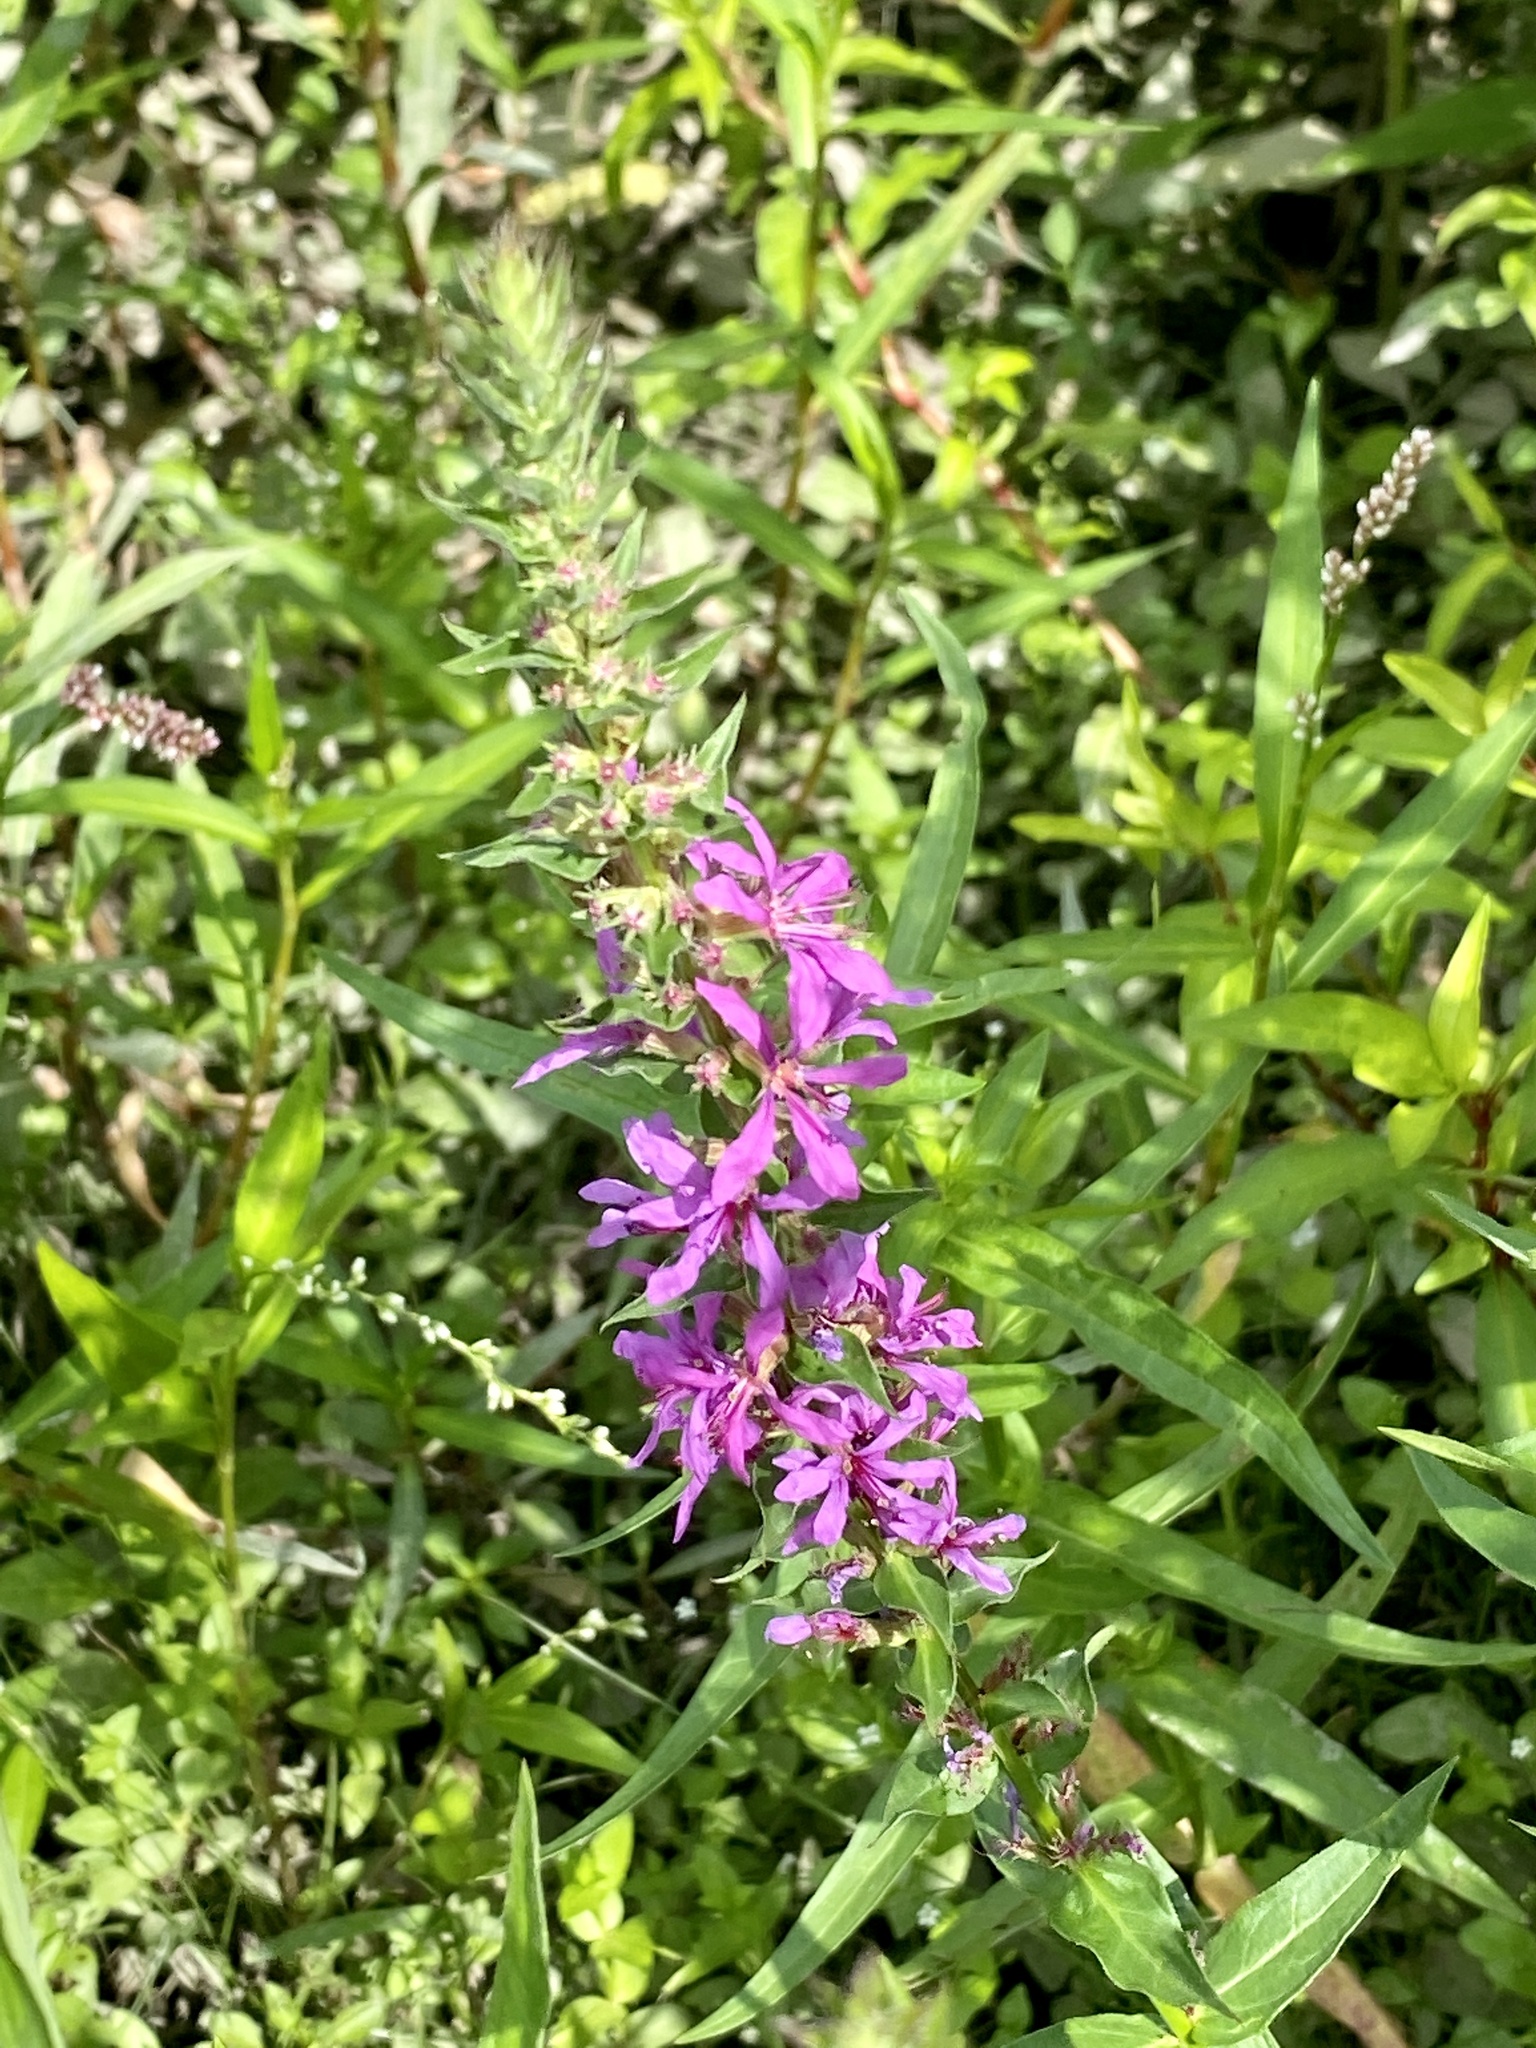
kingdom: Plantae
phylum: Tracheophyta
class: Magnoliopsida
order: Myrtales
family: Lythraceae
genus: Lythrum
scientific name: Lythrum salicaria
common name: Purple loosestrife
